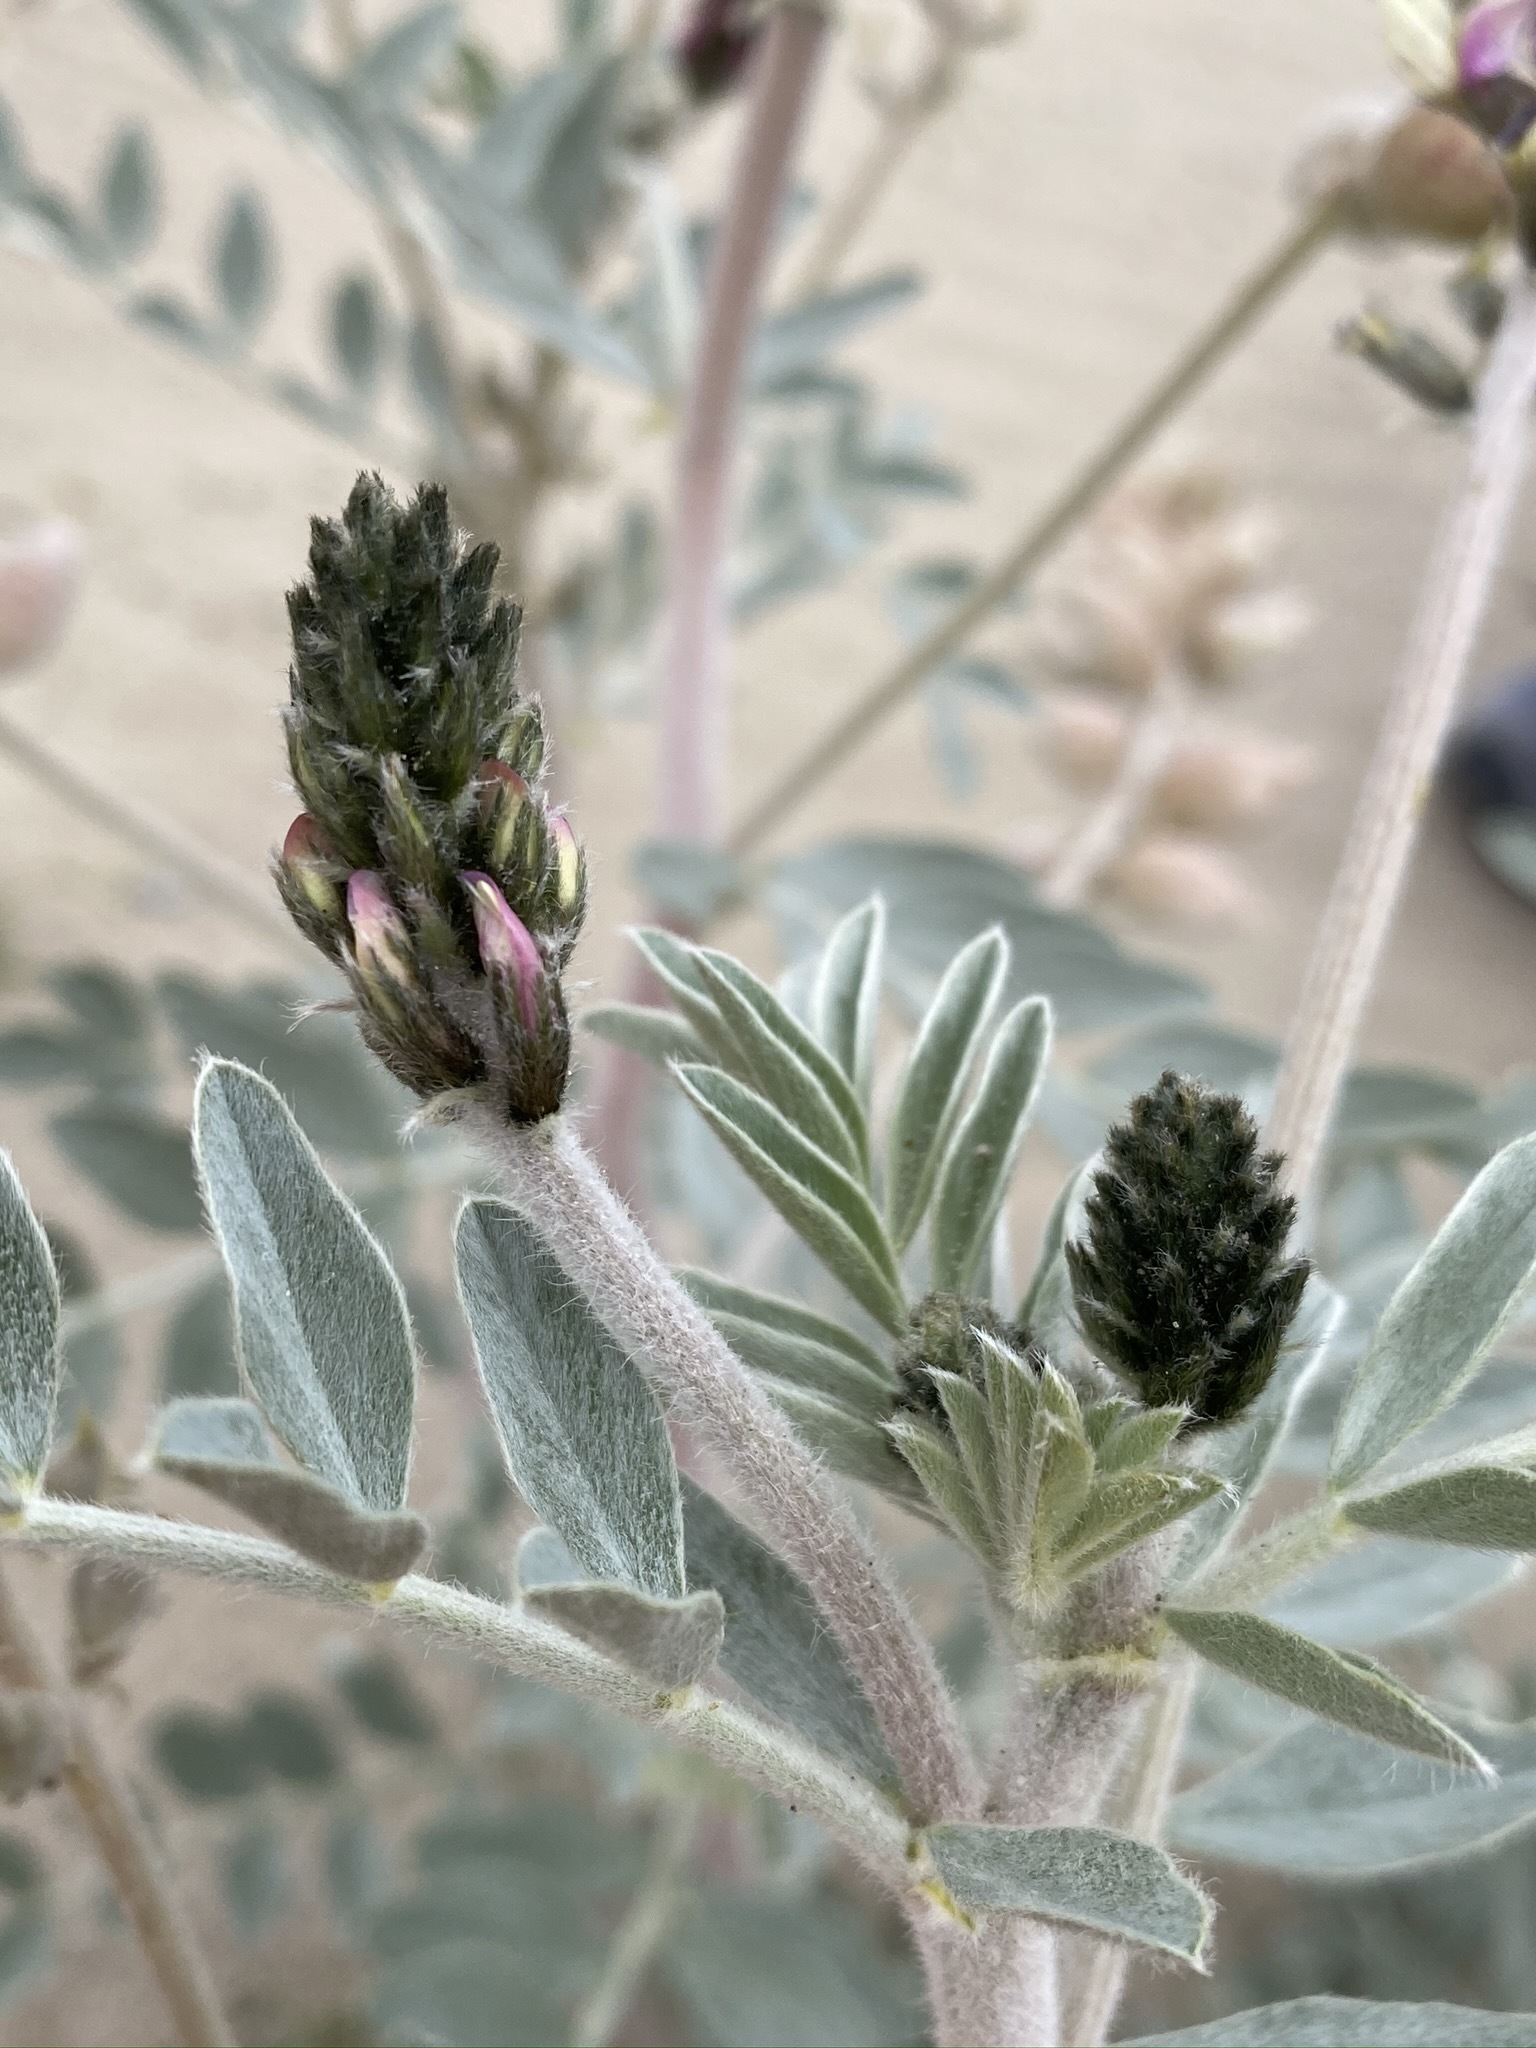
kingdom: Plantae
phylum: Tracheophyta
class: Magnoliopsida
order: Fabales
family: Fabaceae
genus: Astragalus
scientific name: Astragalus lentiginosus
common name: Freckled milkvetch
